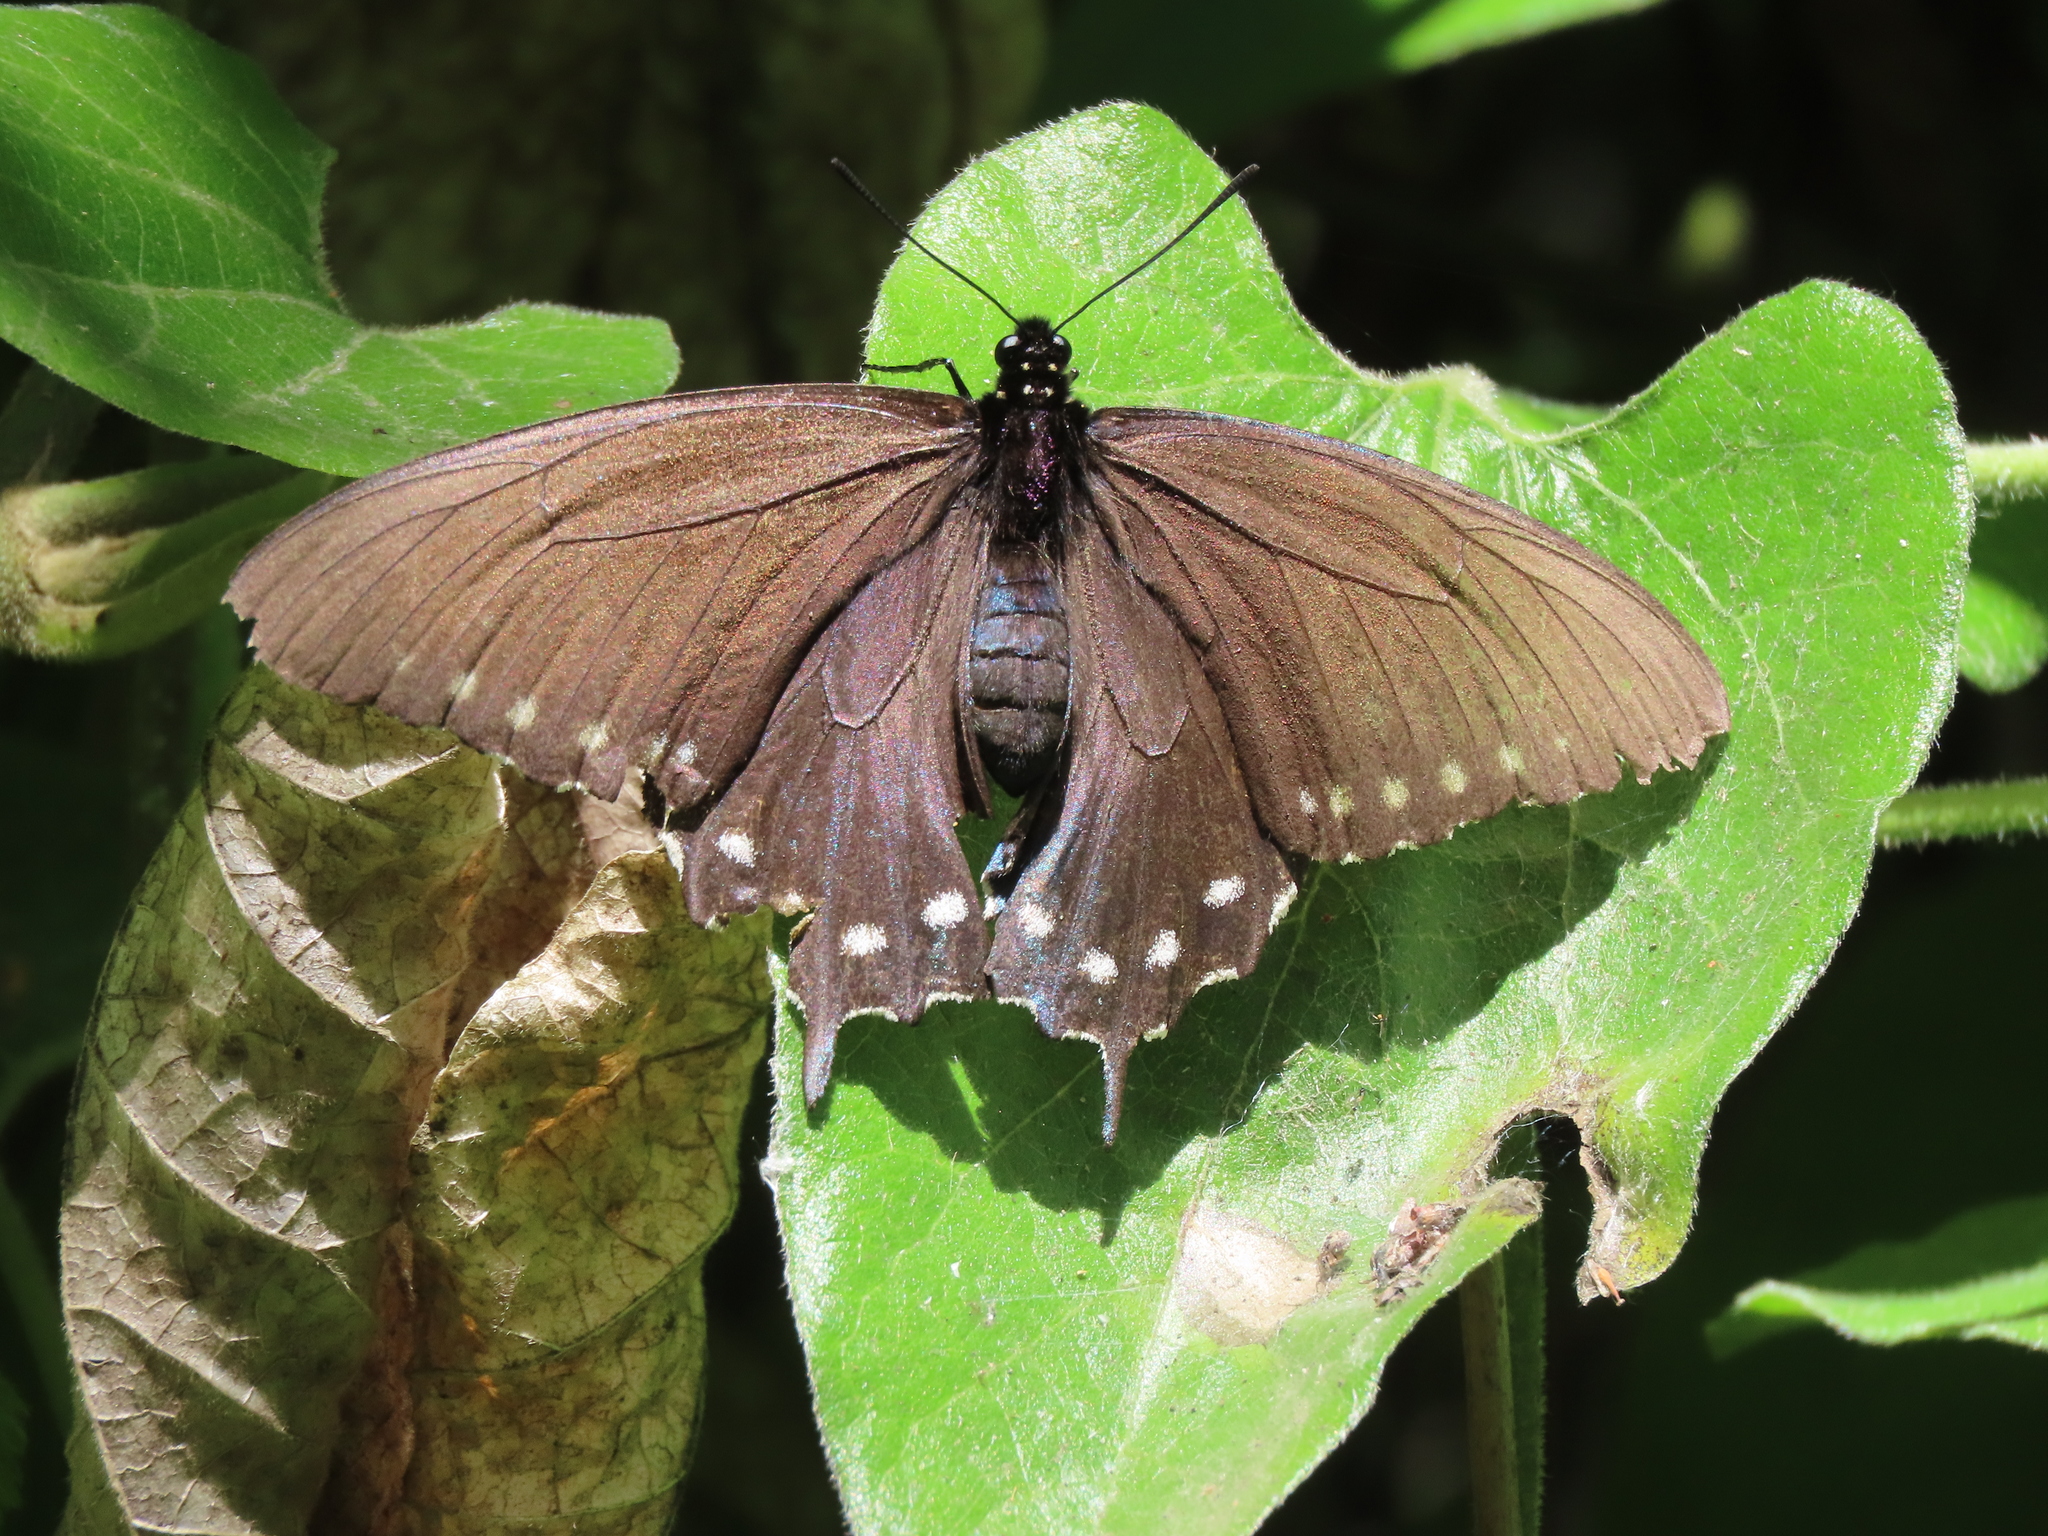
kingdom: Animalia
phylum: Arthropoda
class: Insecta
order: Lepidoptera
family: Papilionidae
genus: Battus
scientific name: Battus philenor
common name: Pipevine swallowtail
